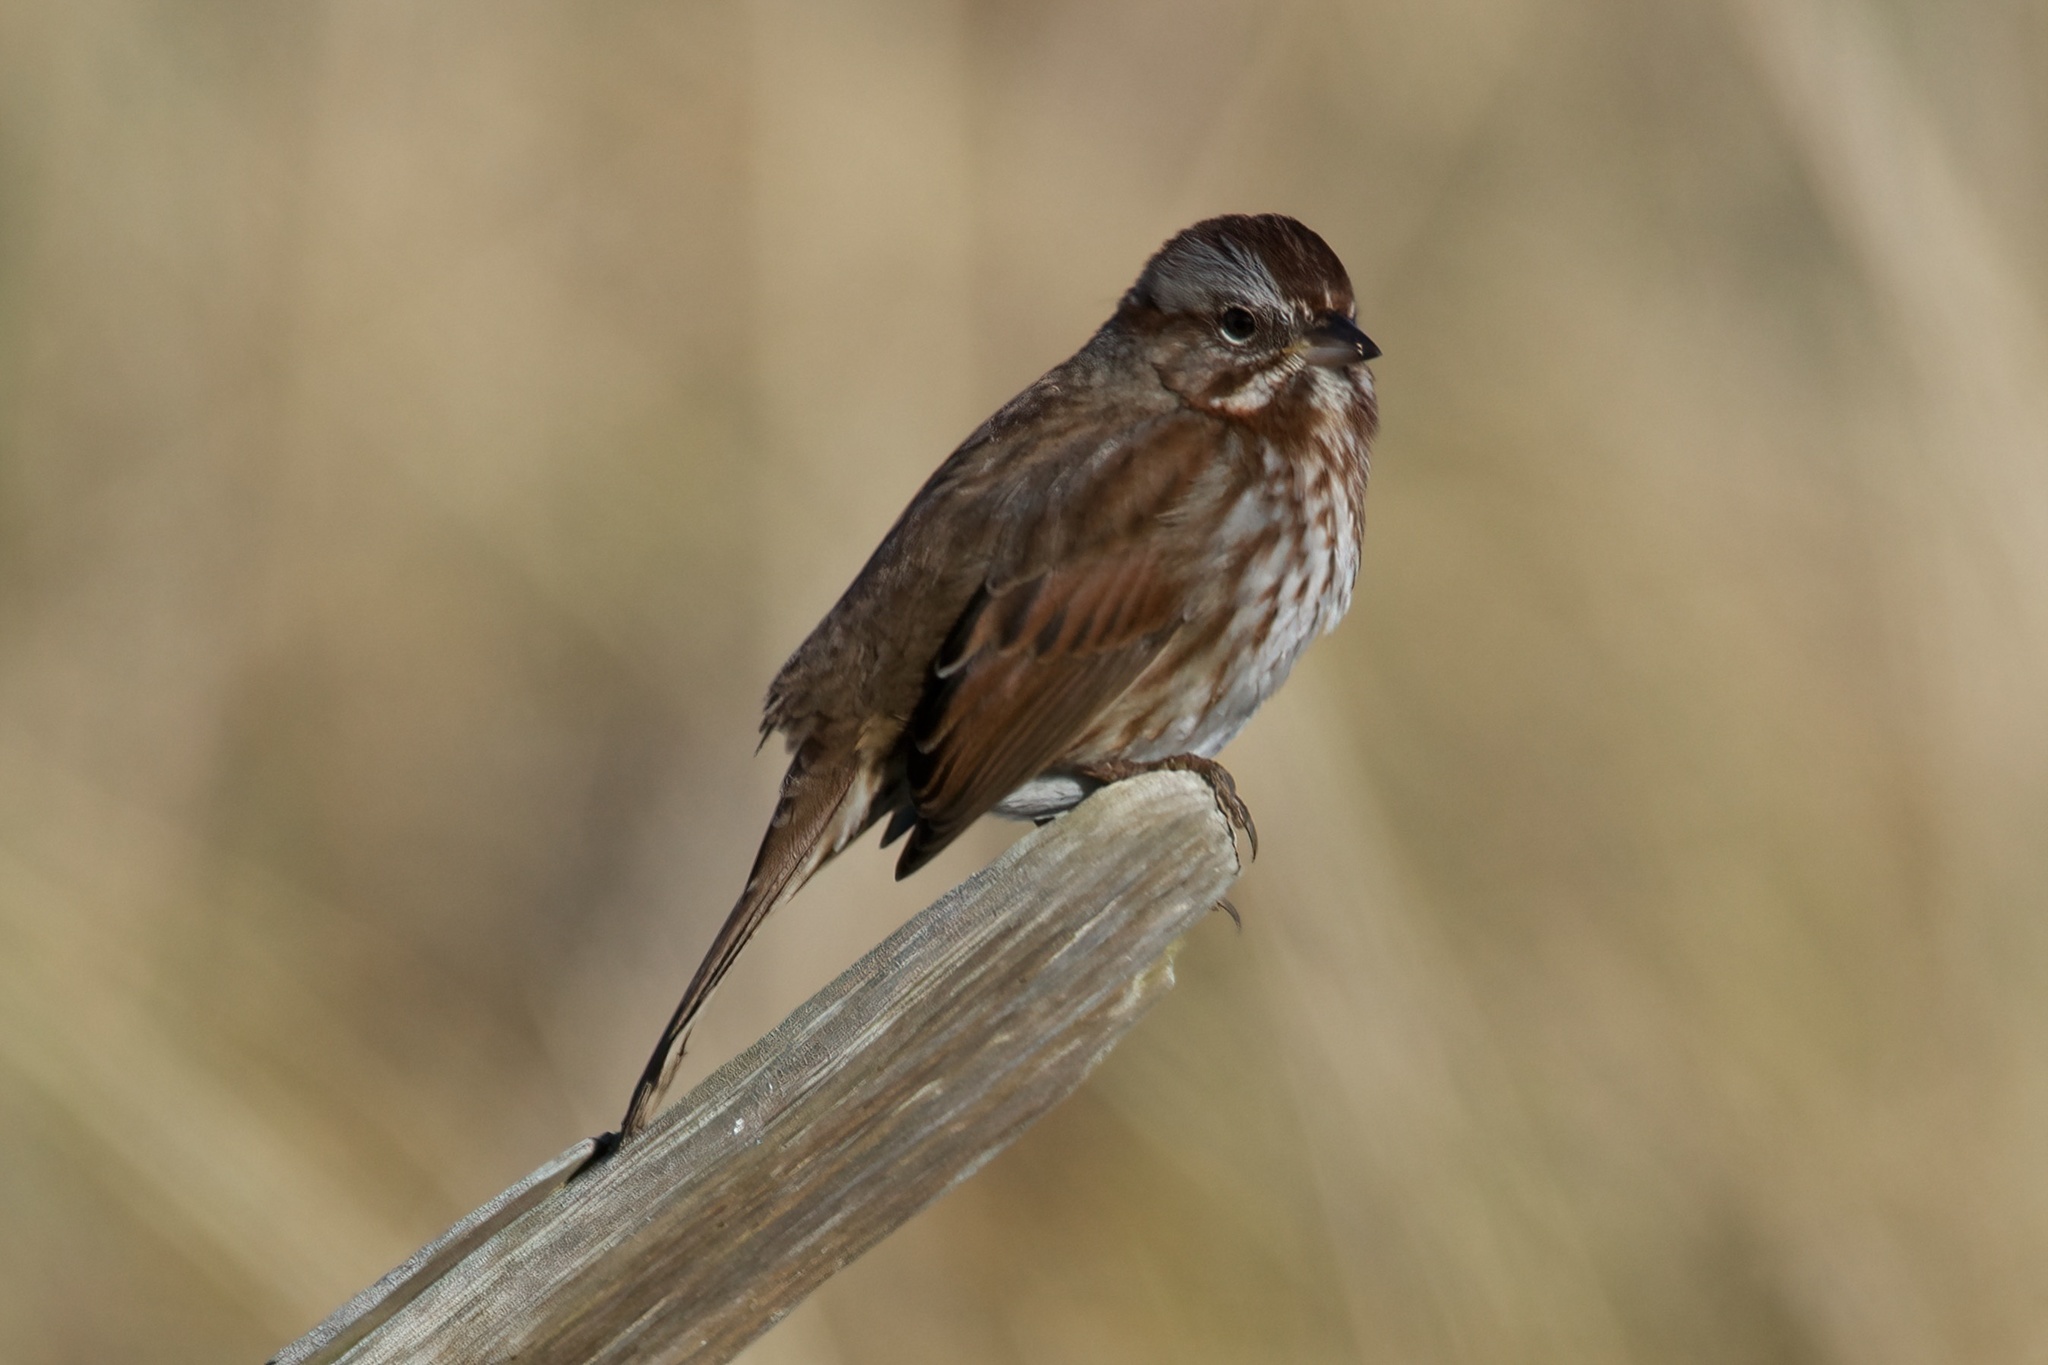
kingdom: Animalia
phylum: Chordata
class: Aves
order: Passeriformes
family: Passerellidae
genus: Melospiza
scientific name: Melospiza melodia
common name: Song sparrow
